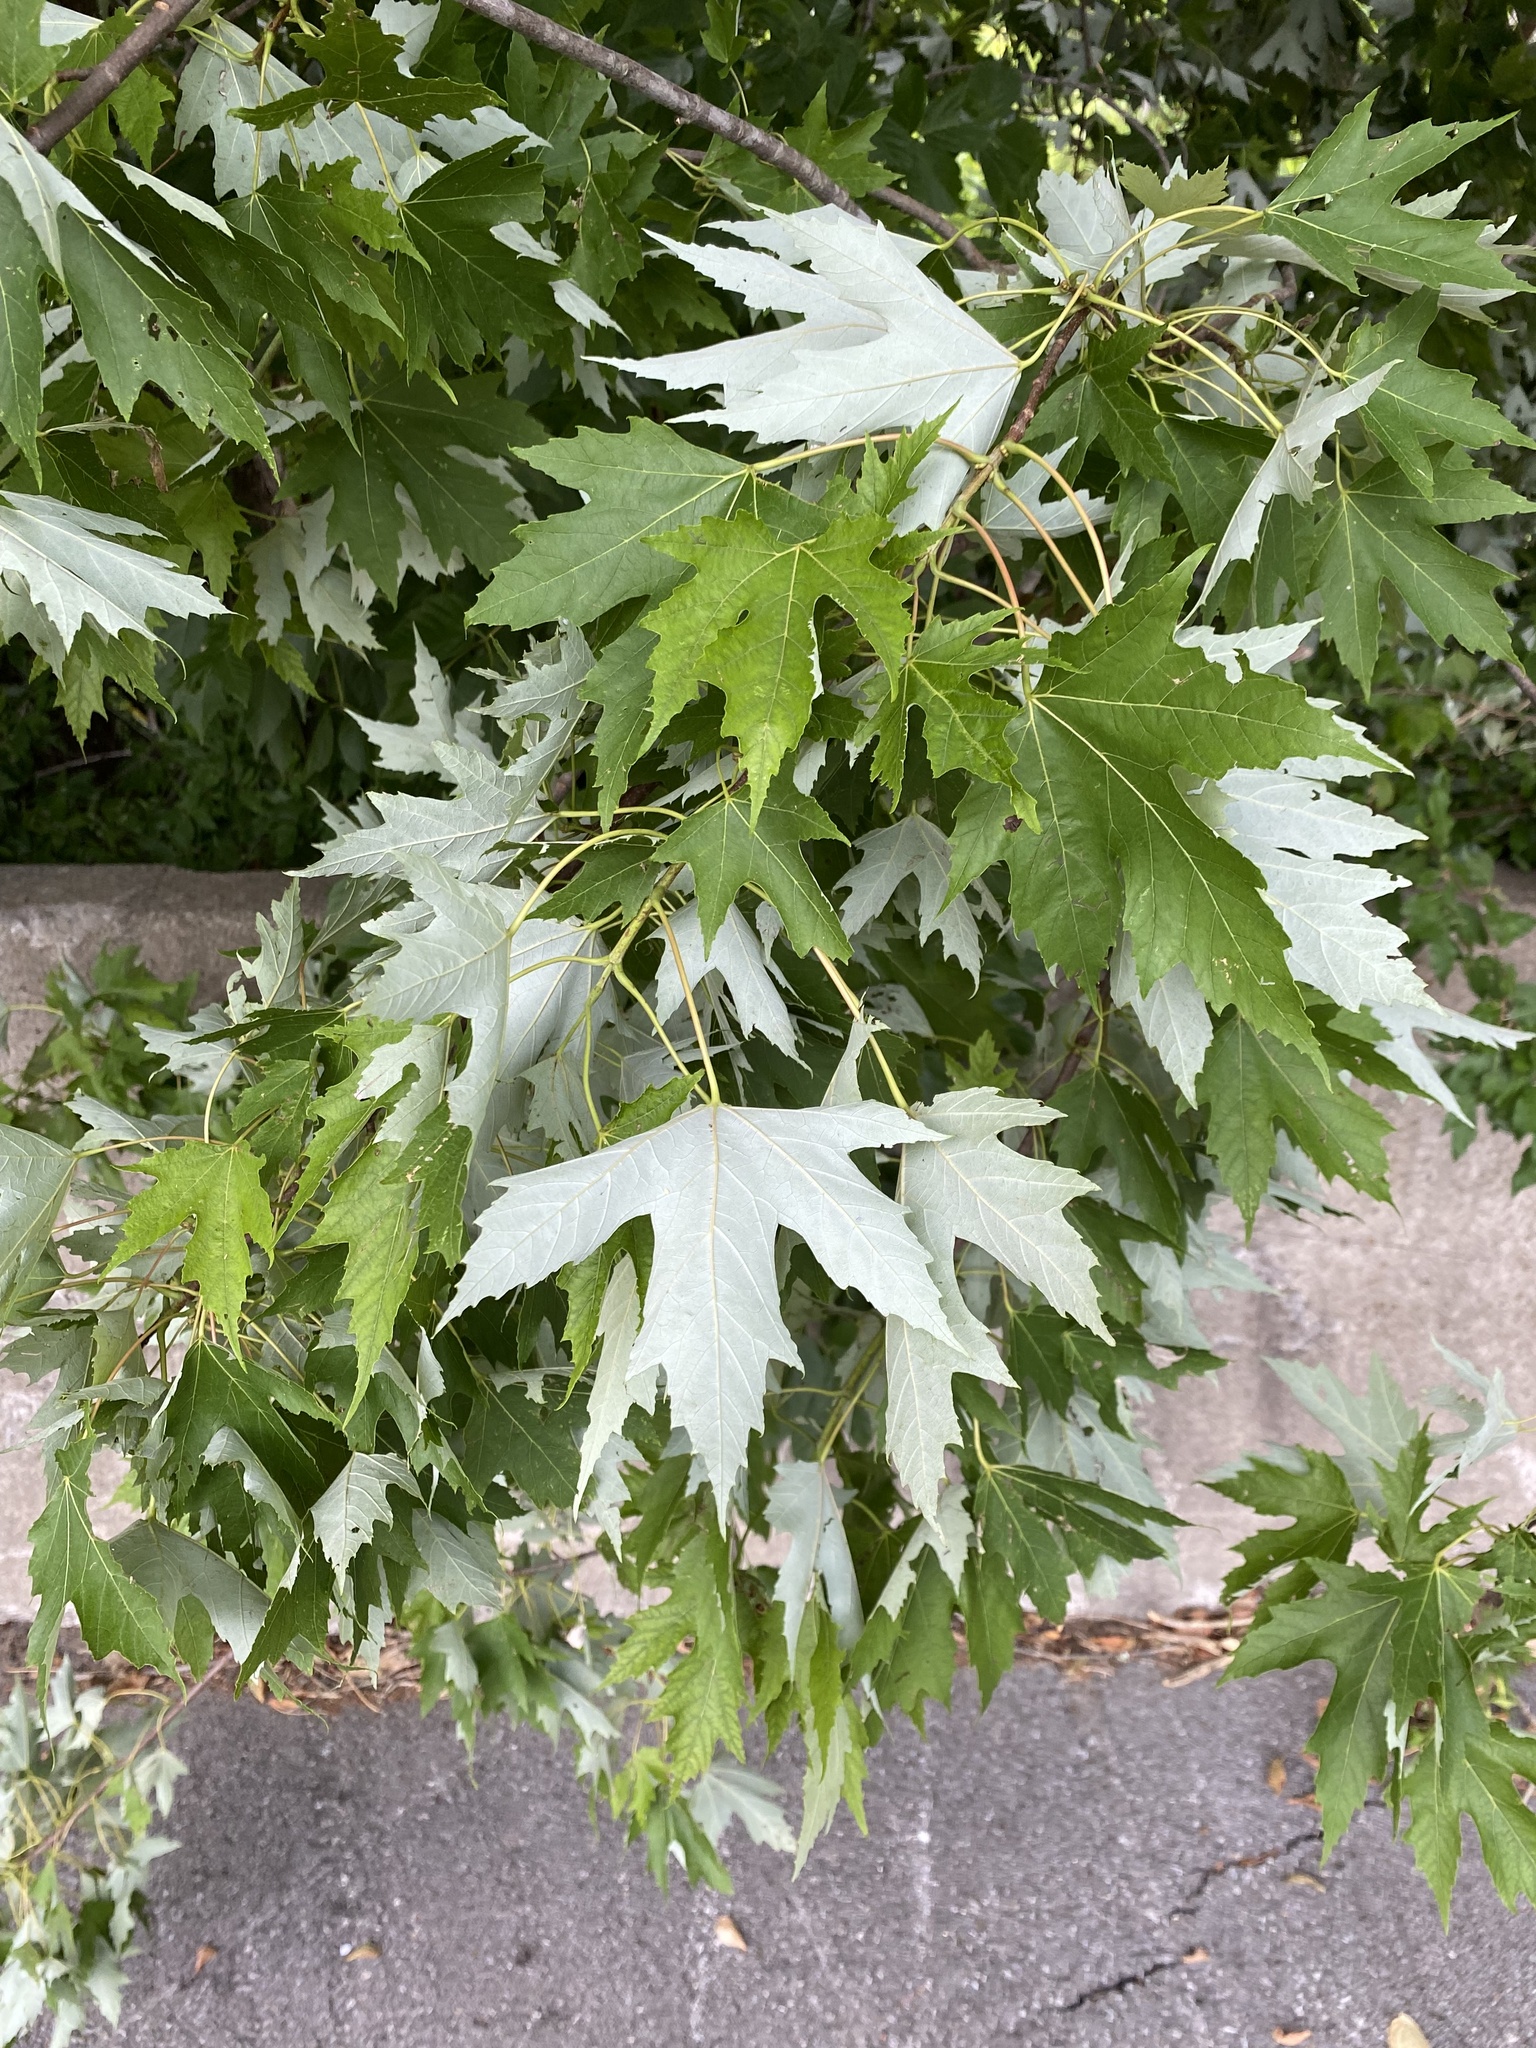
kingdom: Plantae
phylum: Tracheophyta
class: Magnoliopsida
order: Sapindales
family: Sapindaceae
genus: Acer
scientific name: Acer saccharinum
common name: Silver maple
